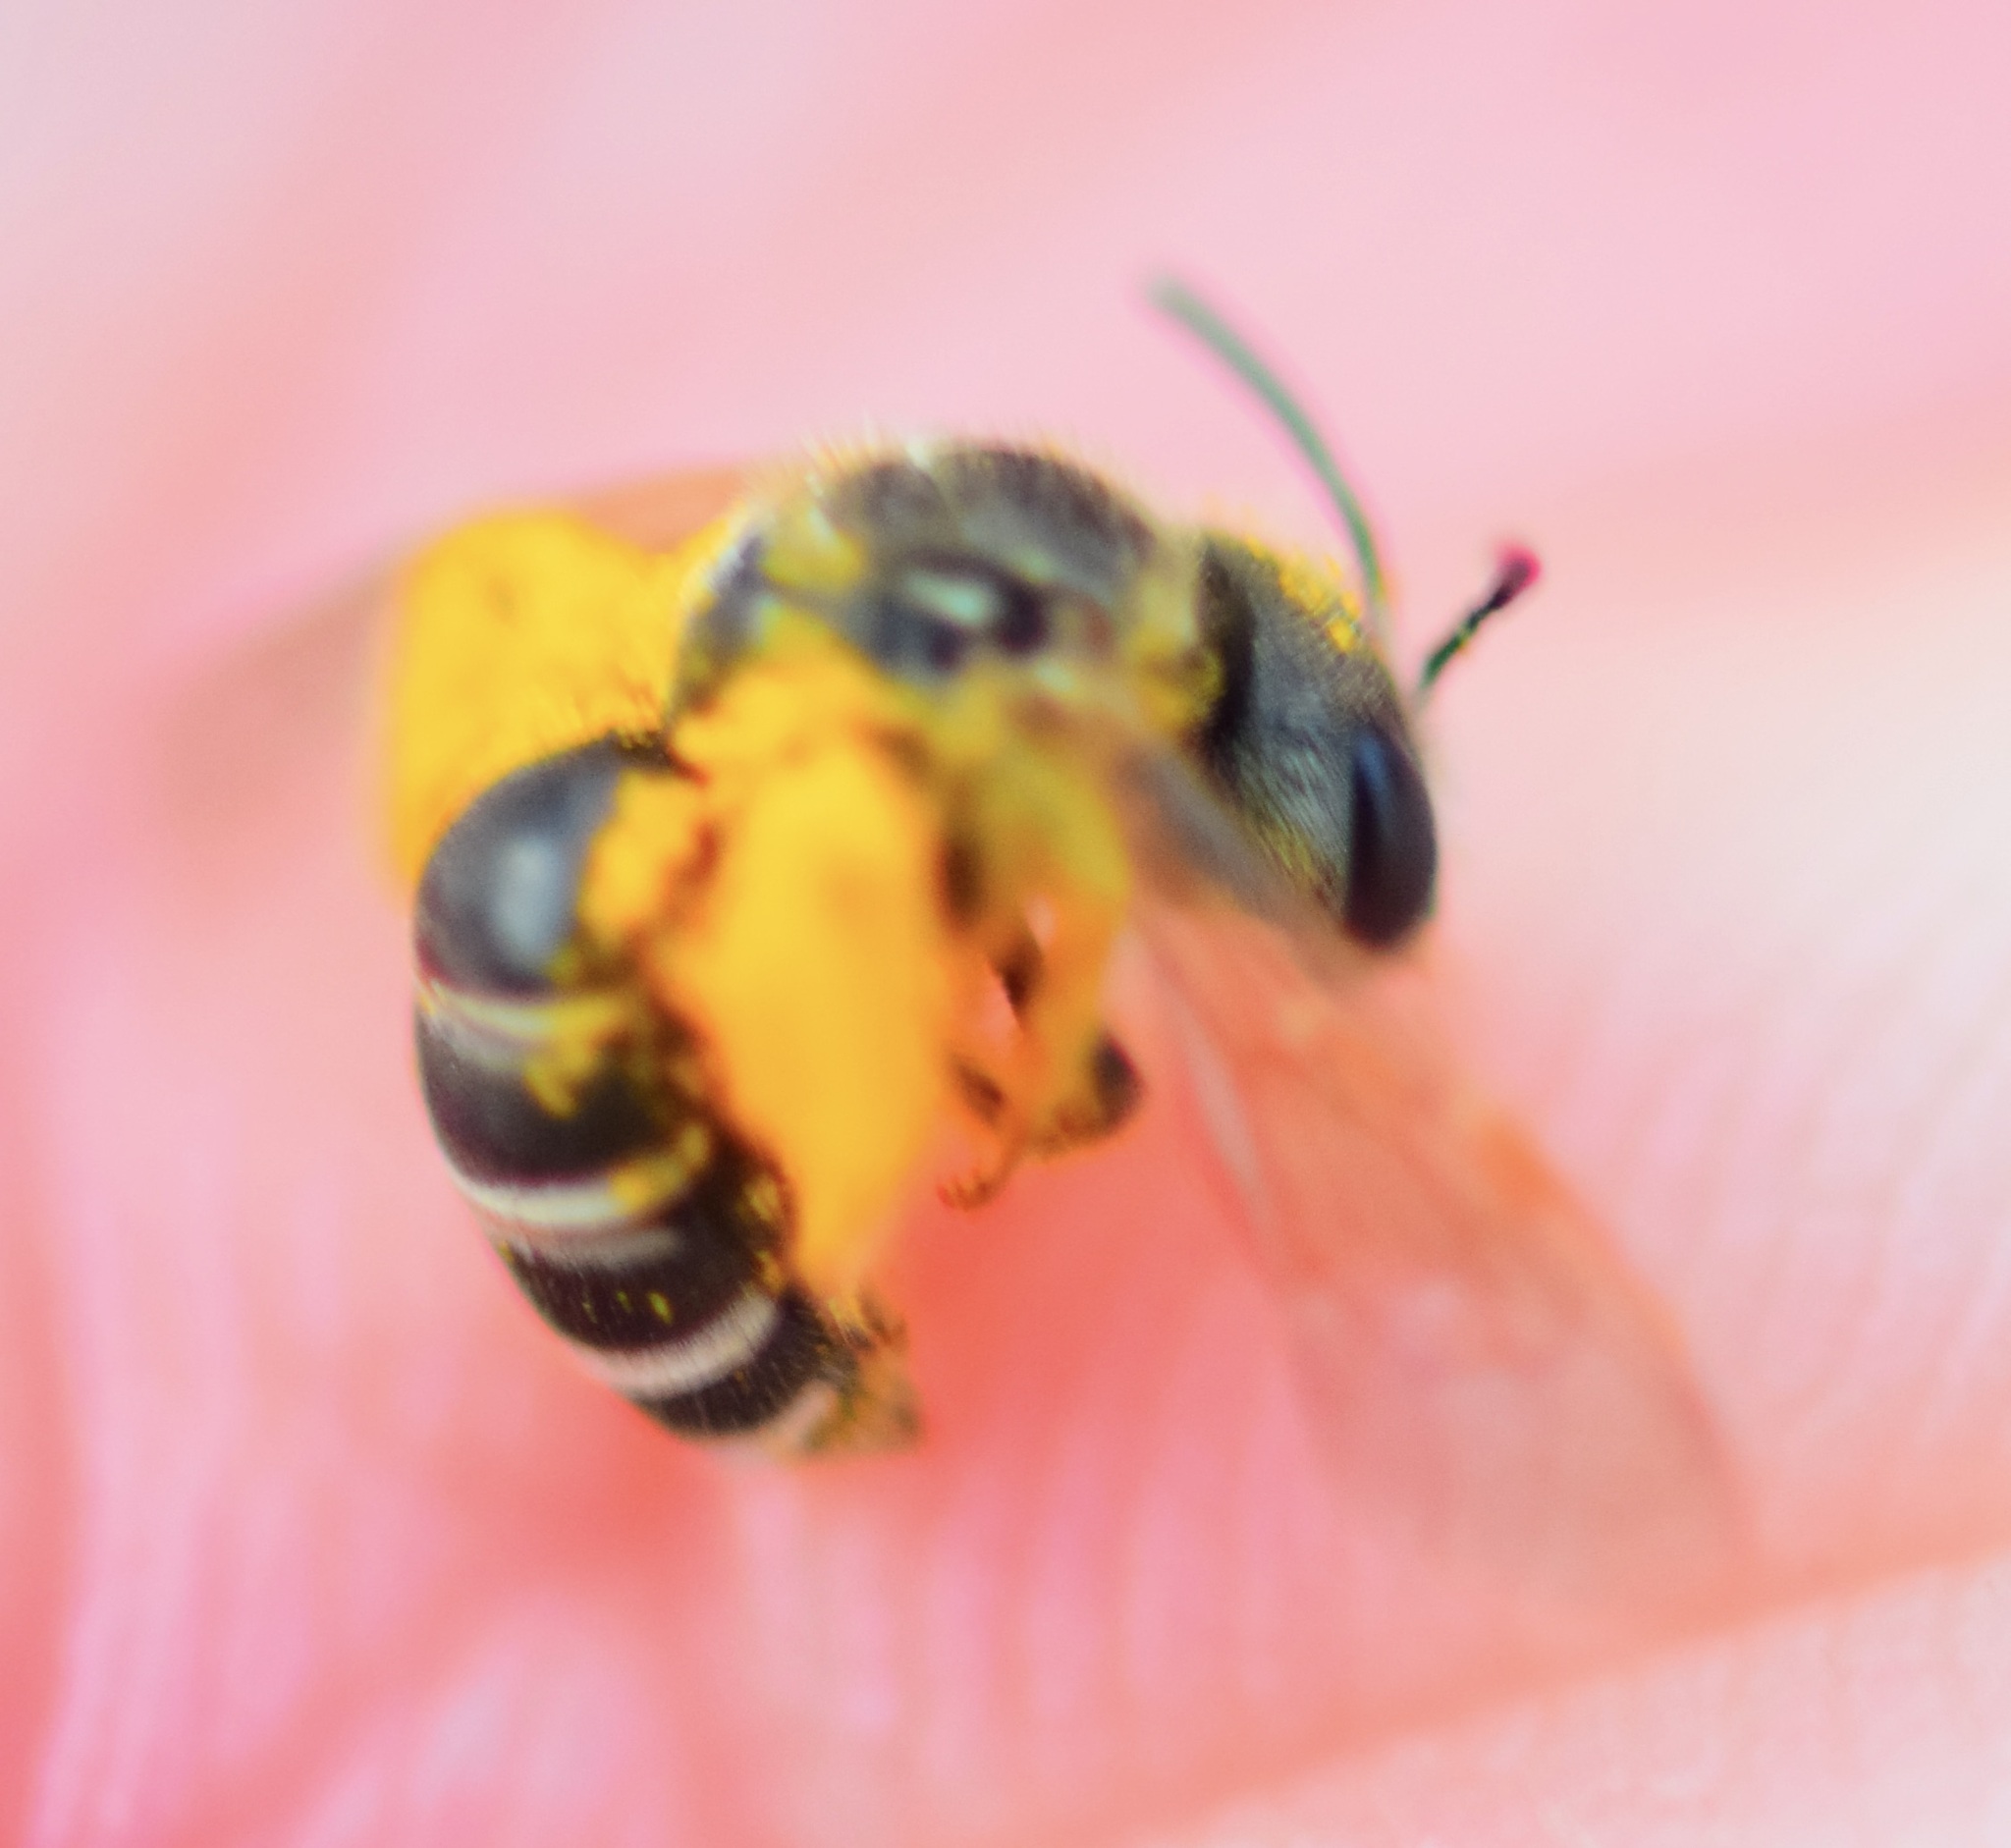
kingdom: Animalia
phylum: Arthropoda
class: Insecta
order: Hymenoptera
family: Halictidae
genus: Halictus
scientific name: Halictus ligatus
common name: Ligated furrow bee
